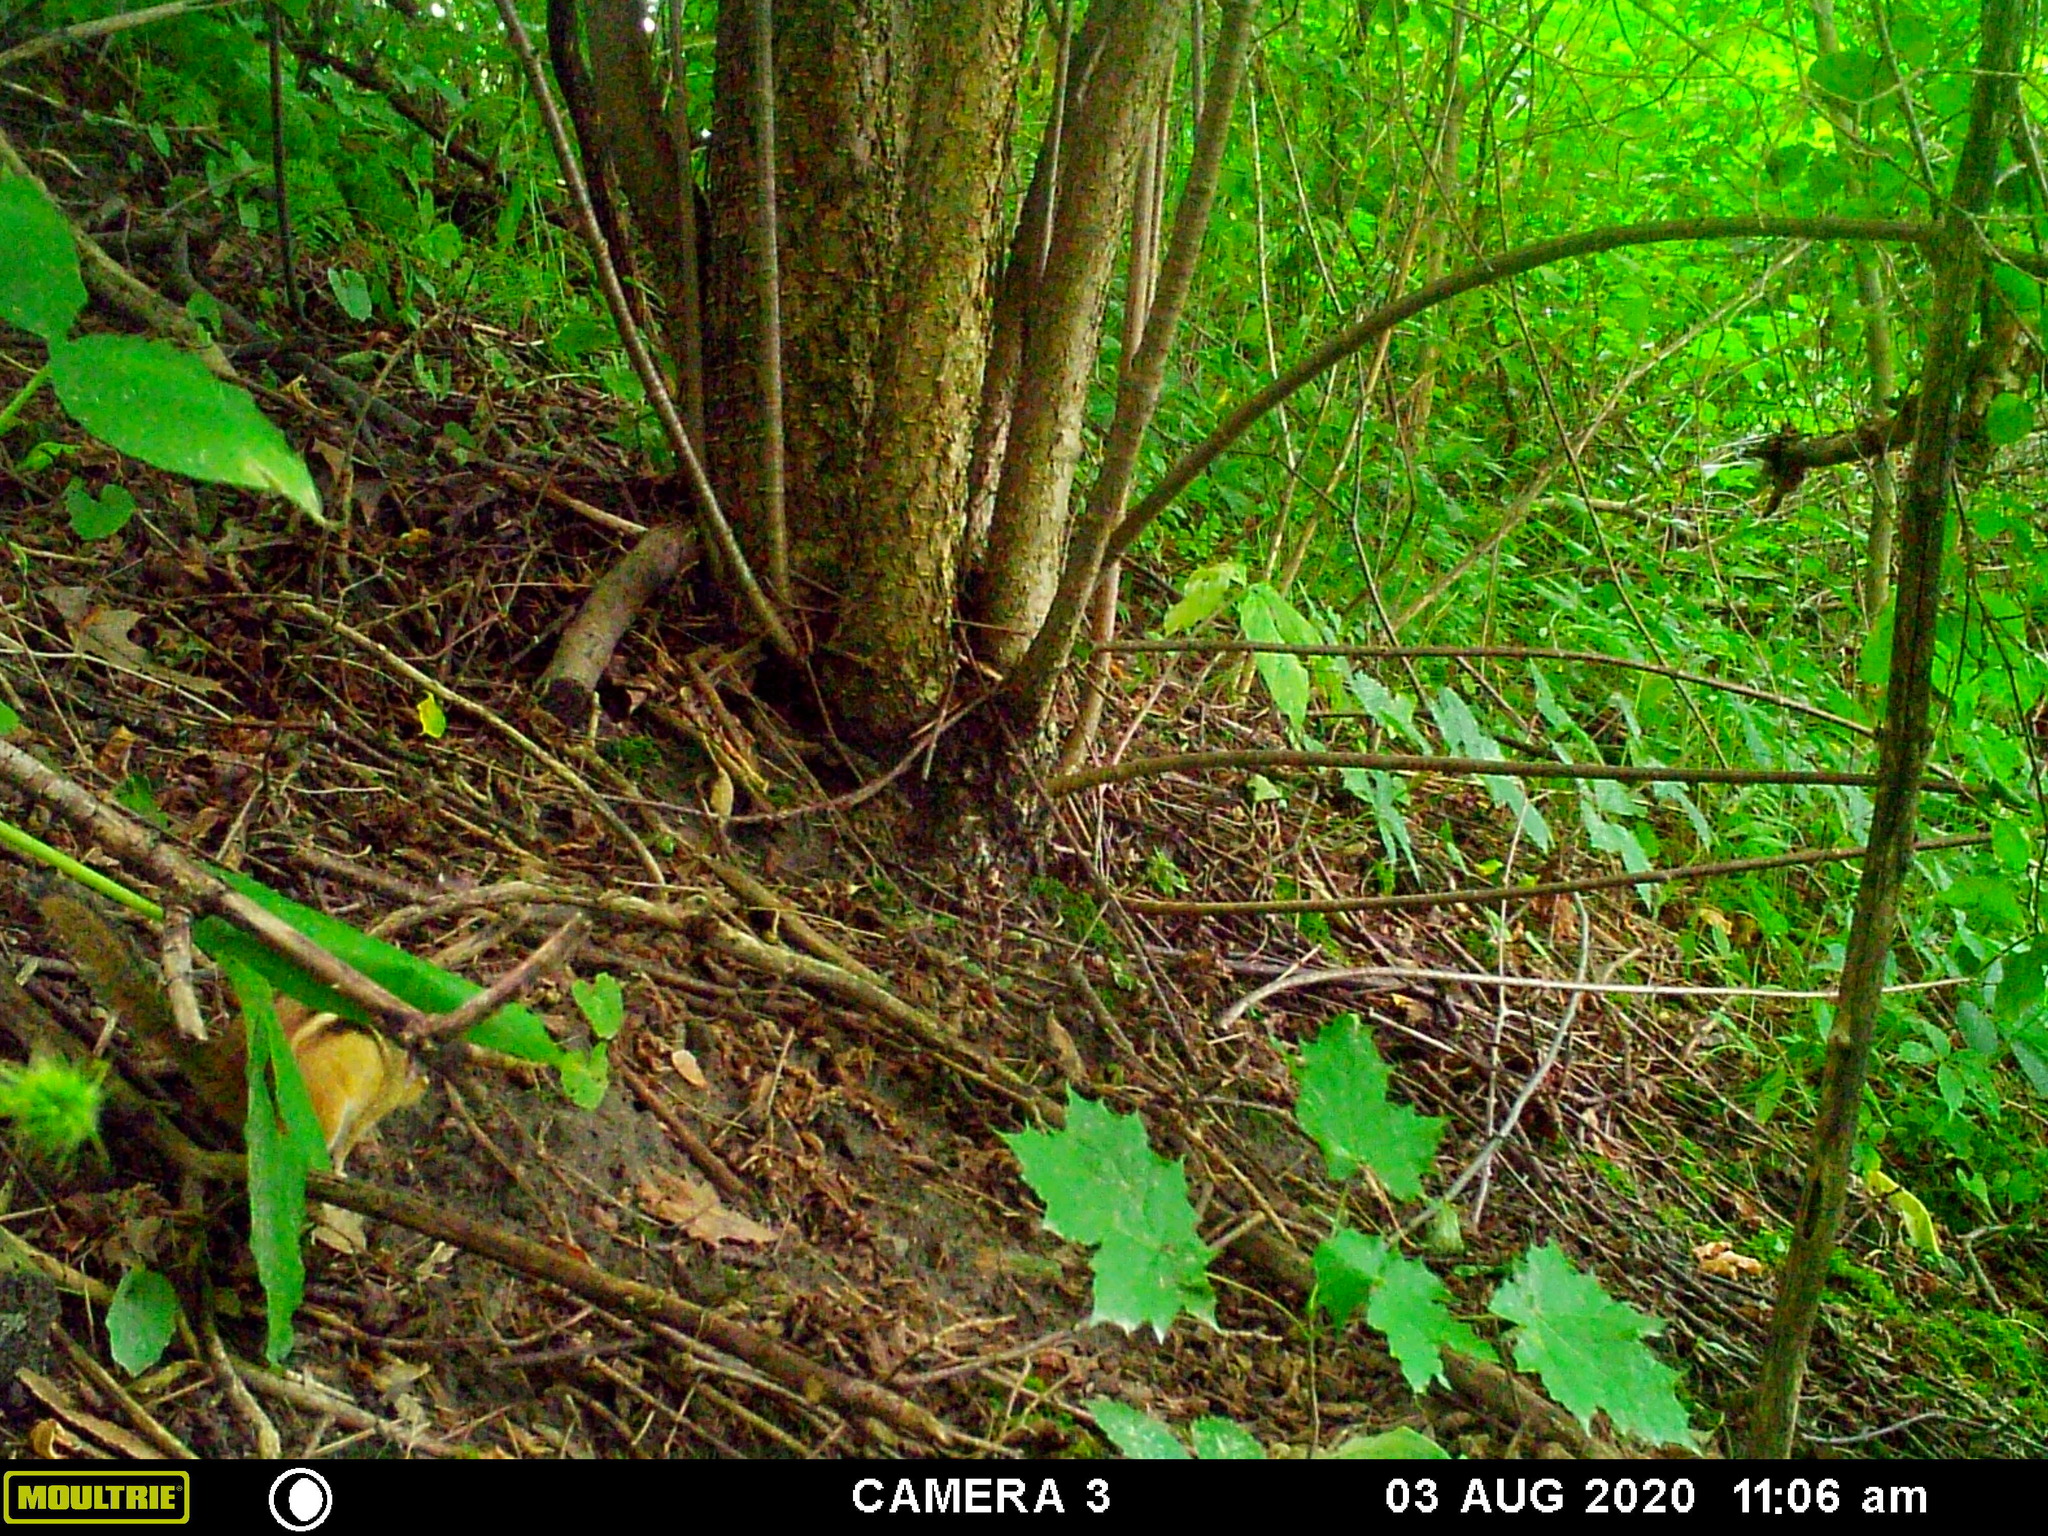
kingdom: Animalia
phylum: Chordata
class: Mammalia
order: Rodentia
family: Sciuridae
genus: Tamias
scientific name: Tamias striatus
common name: Eastern chipmunk
